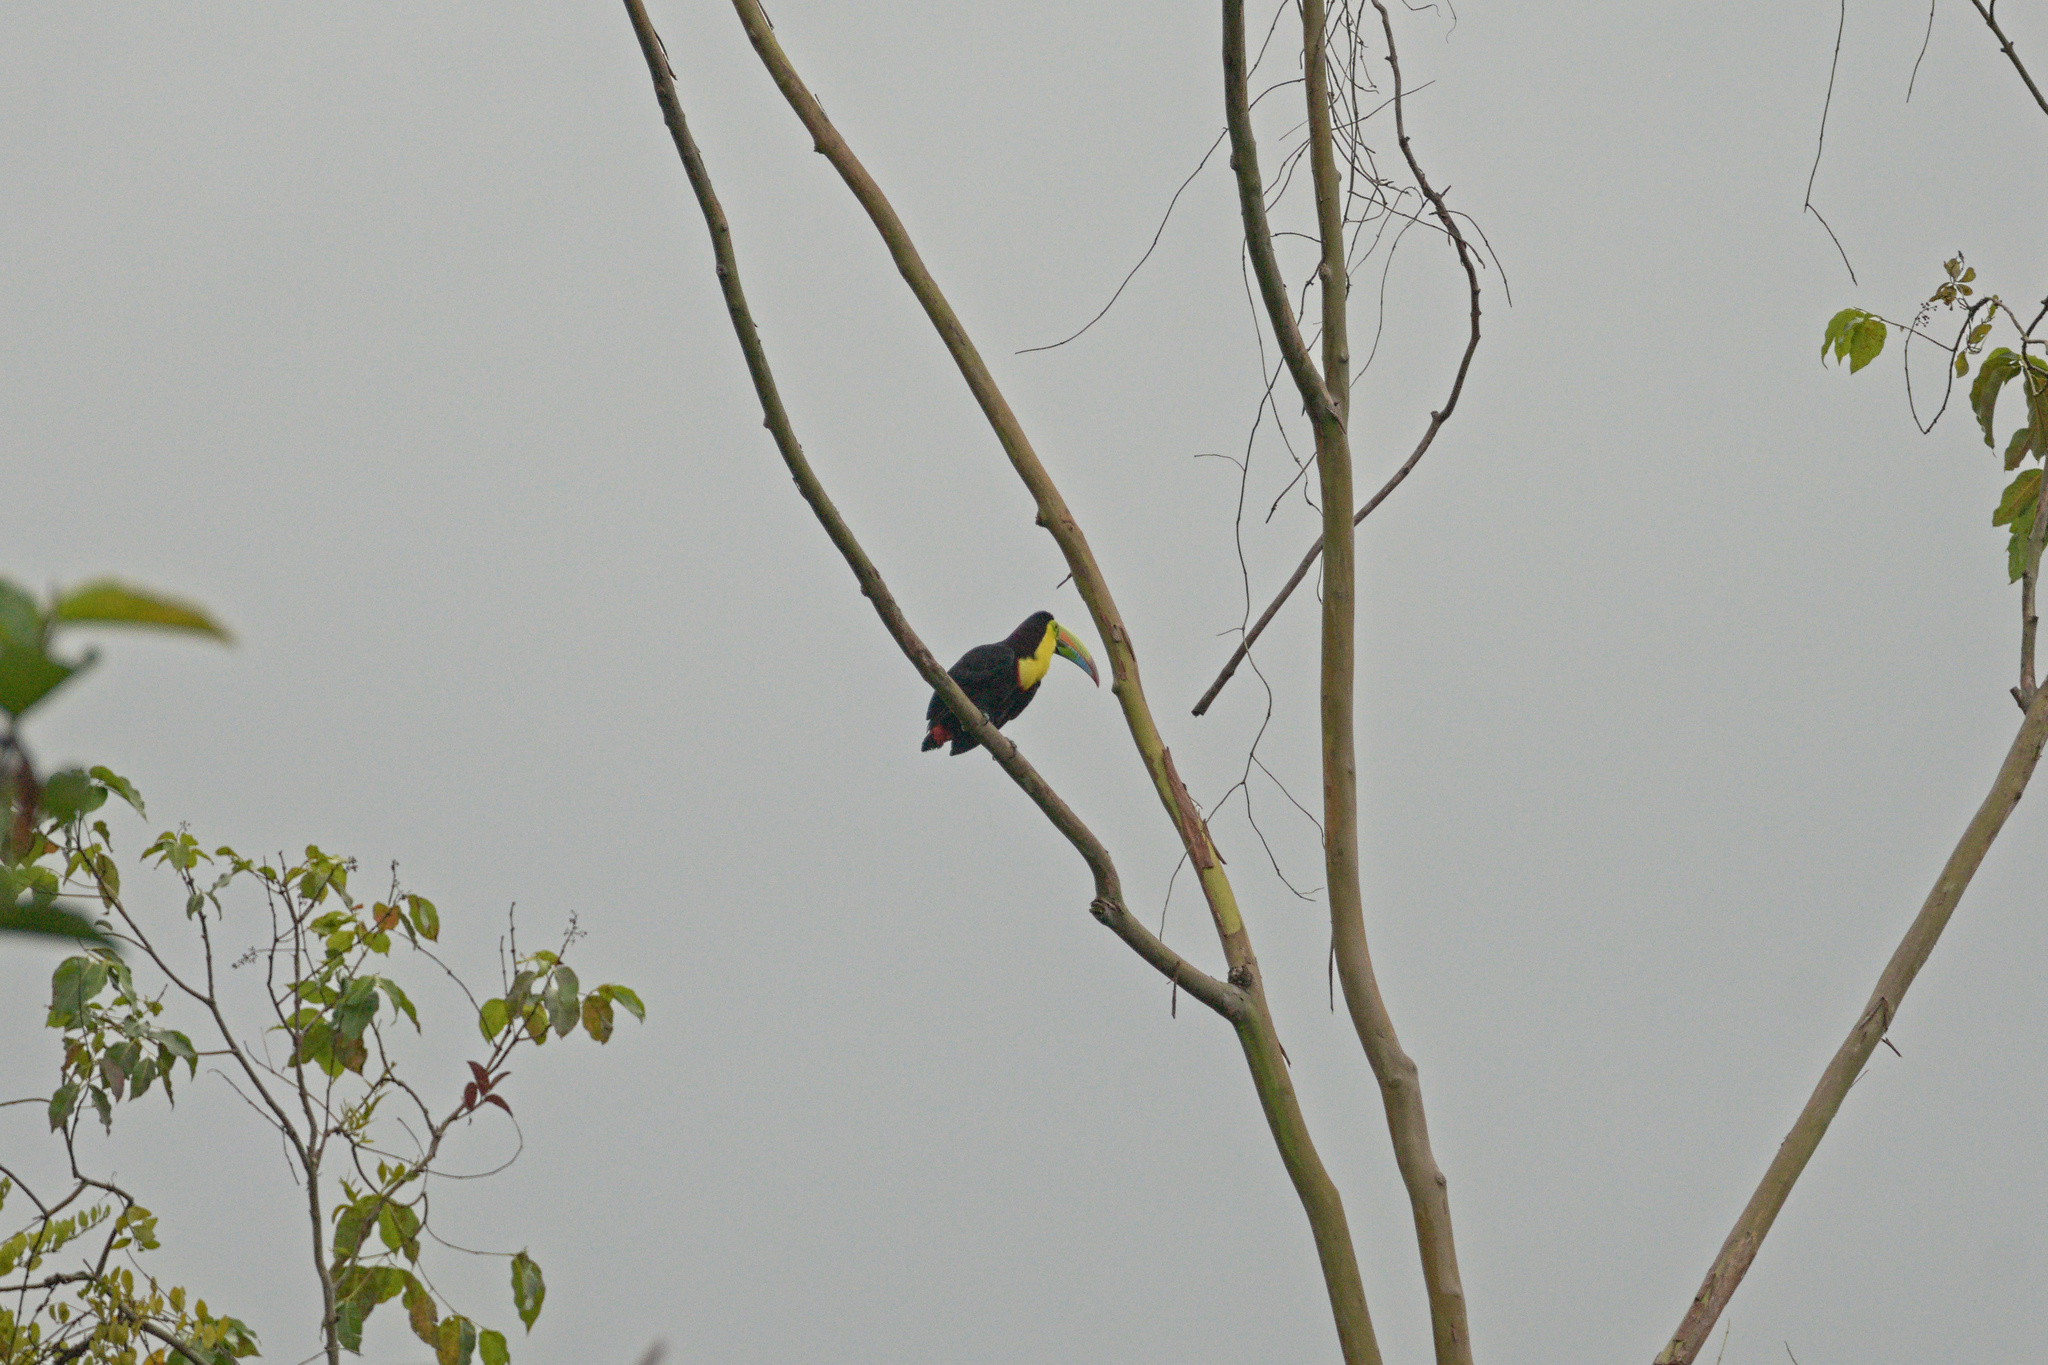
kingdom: Animalia
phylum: Chordata
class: Aves
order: Piciformes
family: Ramphastidae
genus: Ramphastos
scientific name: Ramphastos sulfuratus
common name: Keel-billed toucan
